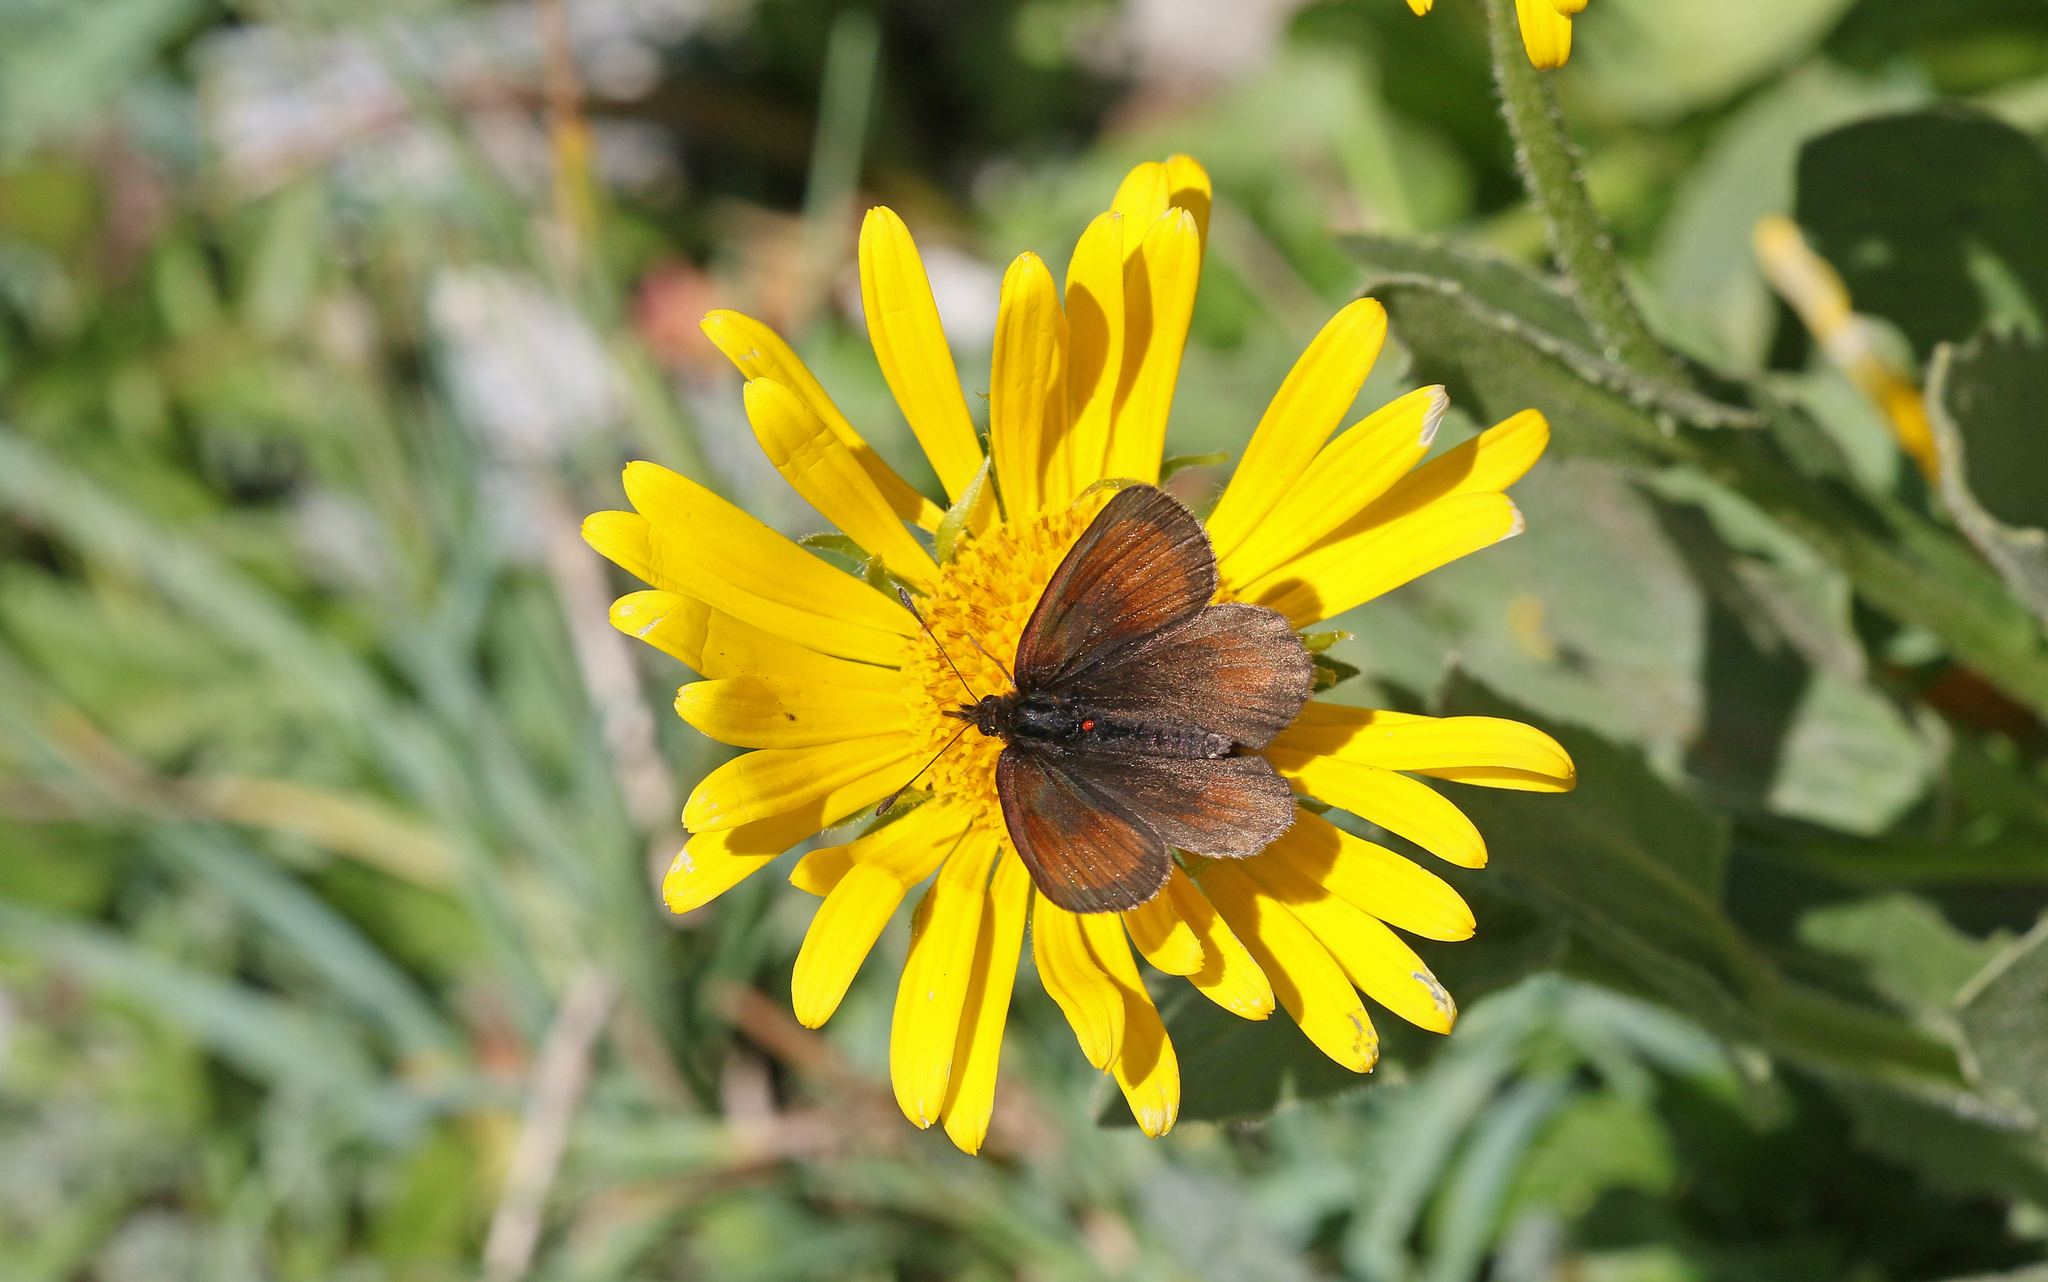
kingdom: Animalia
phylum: Arthropoda
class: Insecta
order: Lepidoptera
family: Nymphalidae
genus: Erebia
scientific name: Erebia gorge
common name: Silky ringlet
